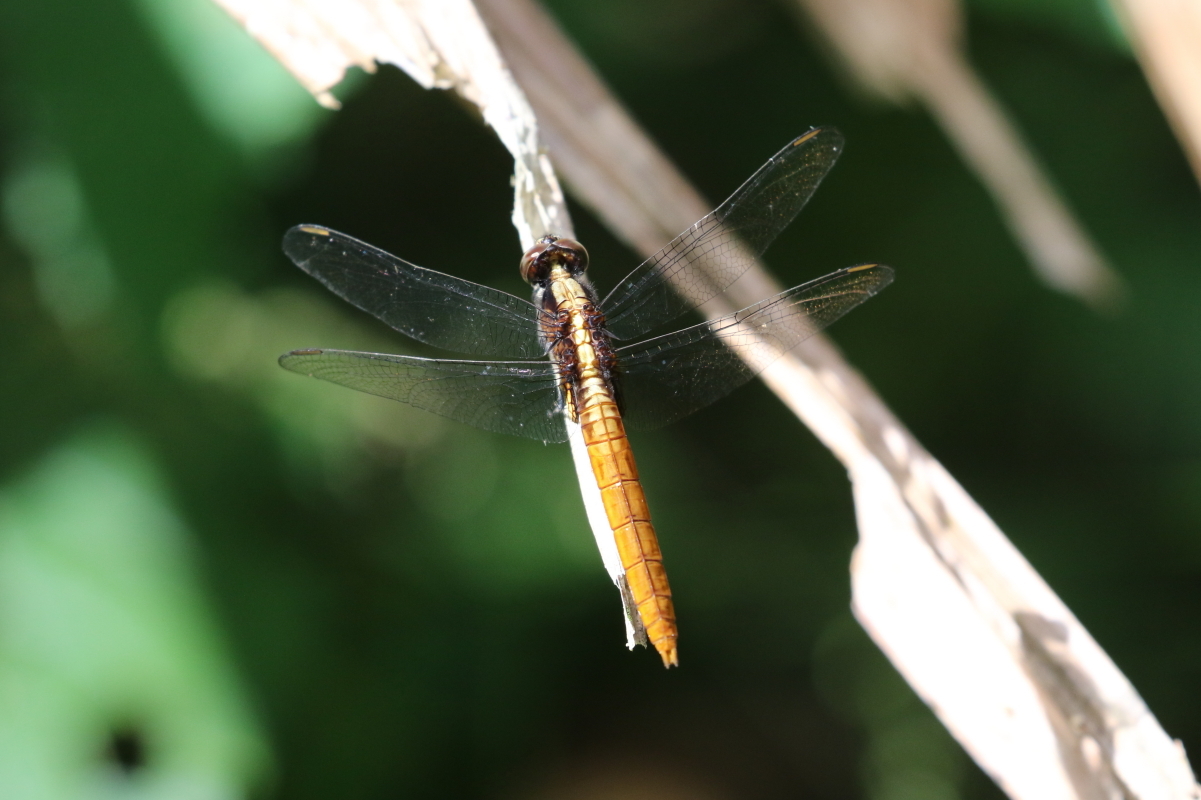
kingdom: Animalia
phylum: Arthropoda
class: Insecta
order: Odonata
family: Libellulidae
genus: Erythemis
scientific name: Erythemis peruviana
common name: Flame-tailed pondhawk
